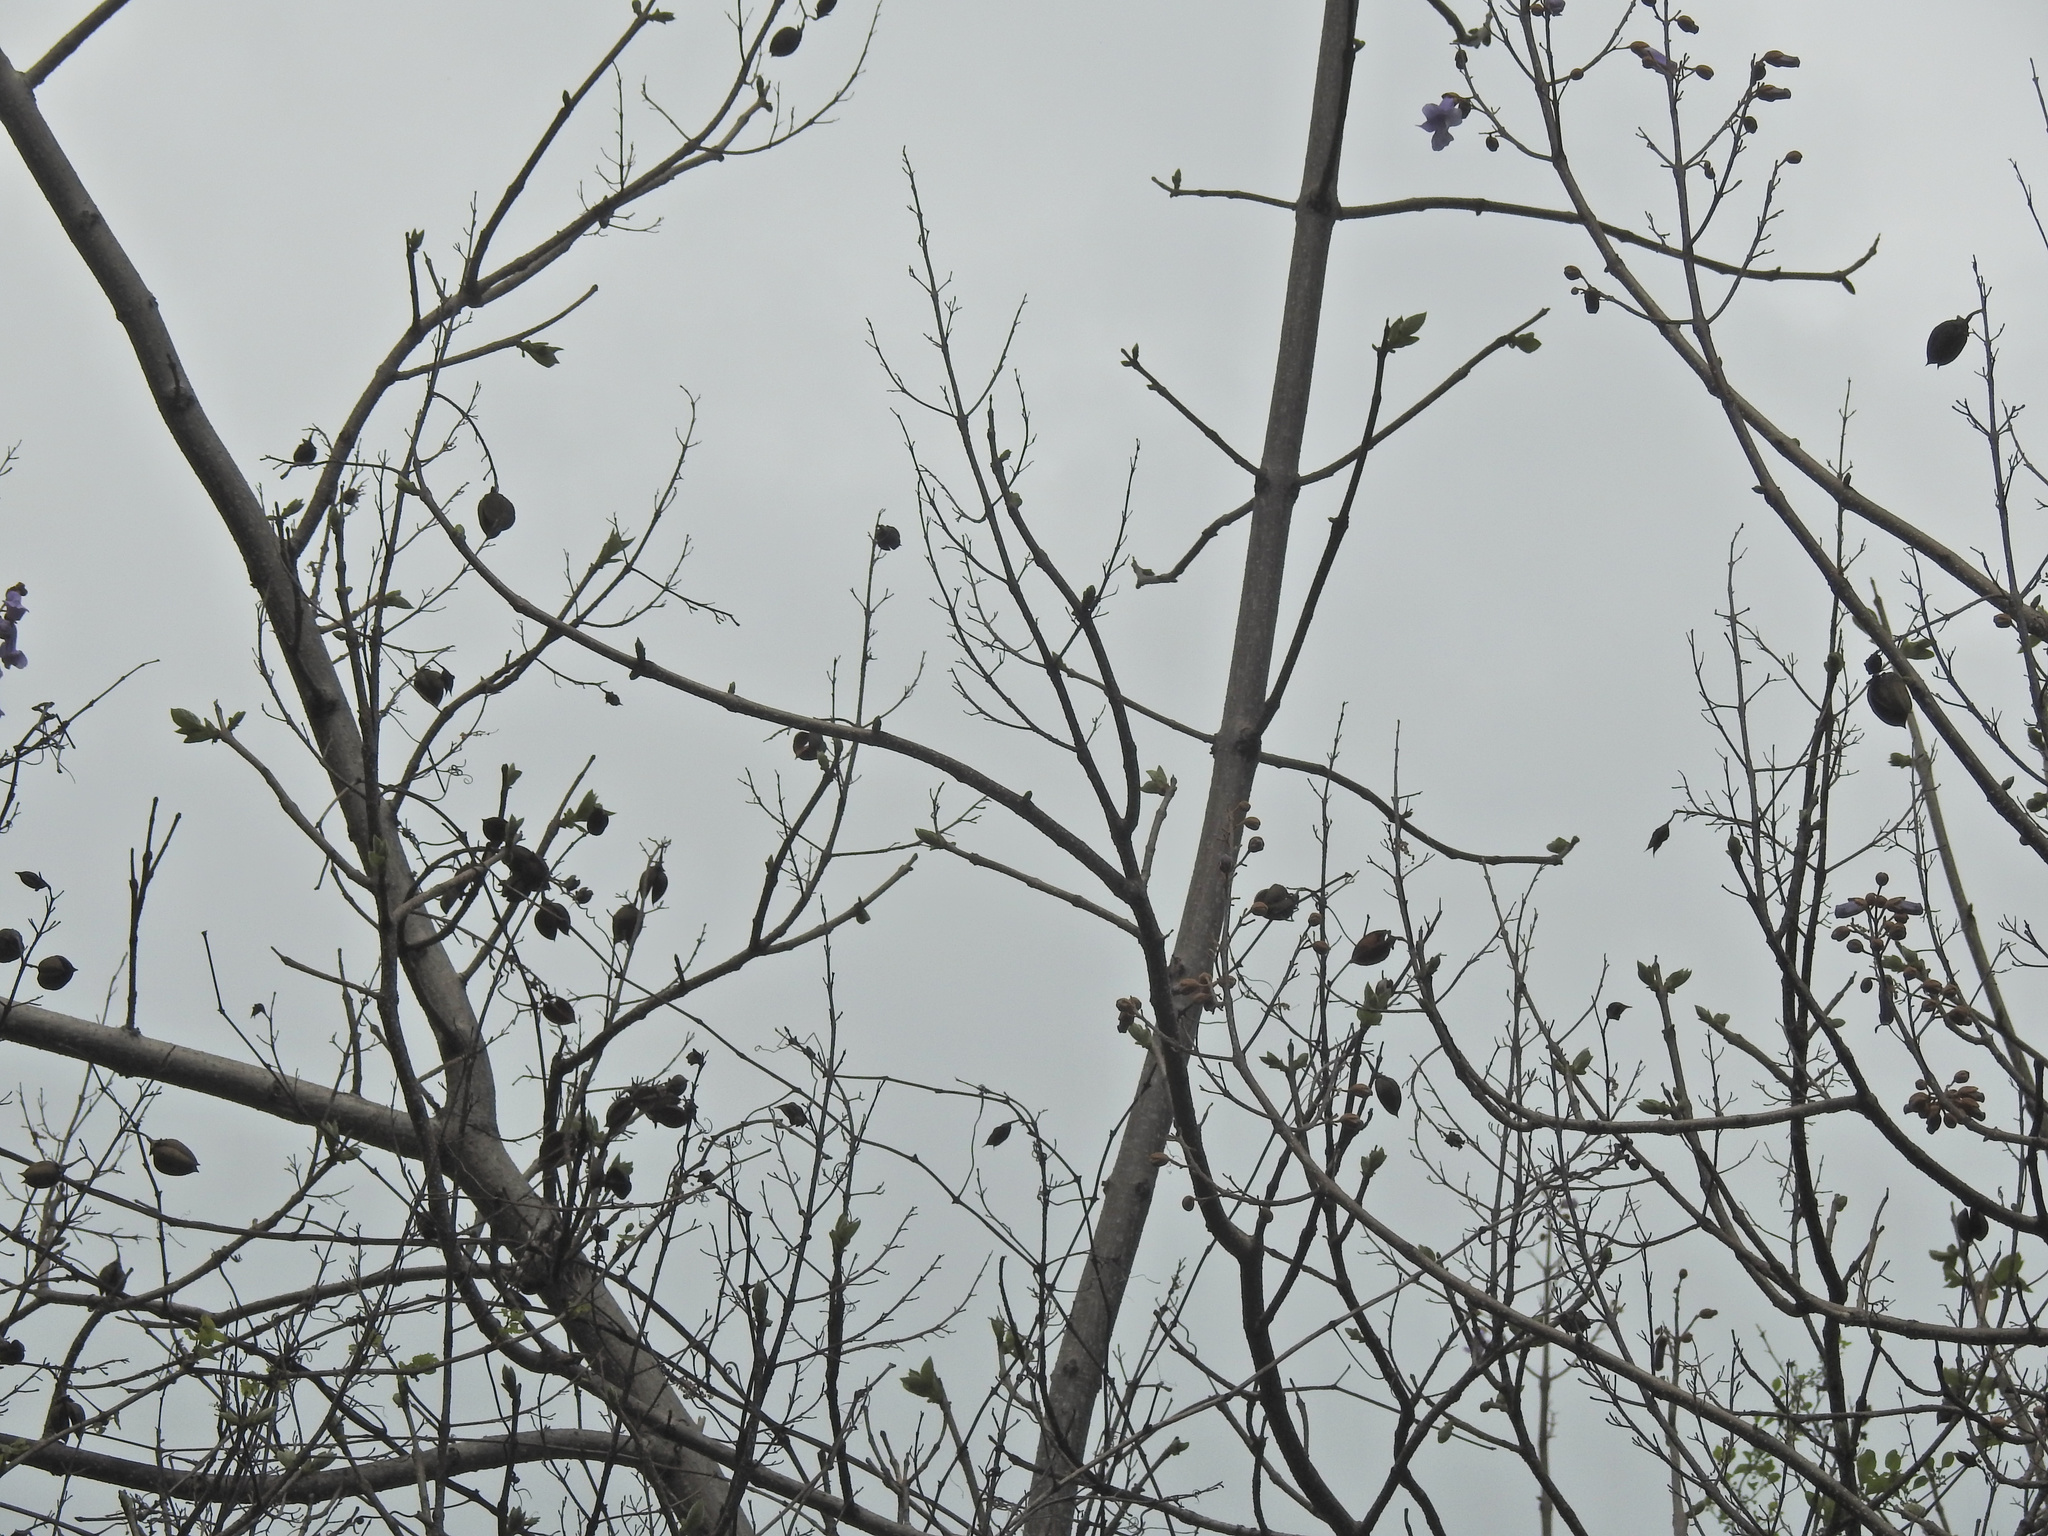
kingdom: Plantae
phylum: Tracheophyta
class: Magnoliopsida
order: Lamiales
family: Paulowniaceae
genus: Paulownia
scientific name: Paulownia tomentosa
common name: Foxglove-tree
